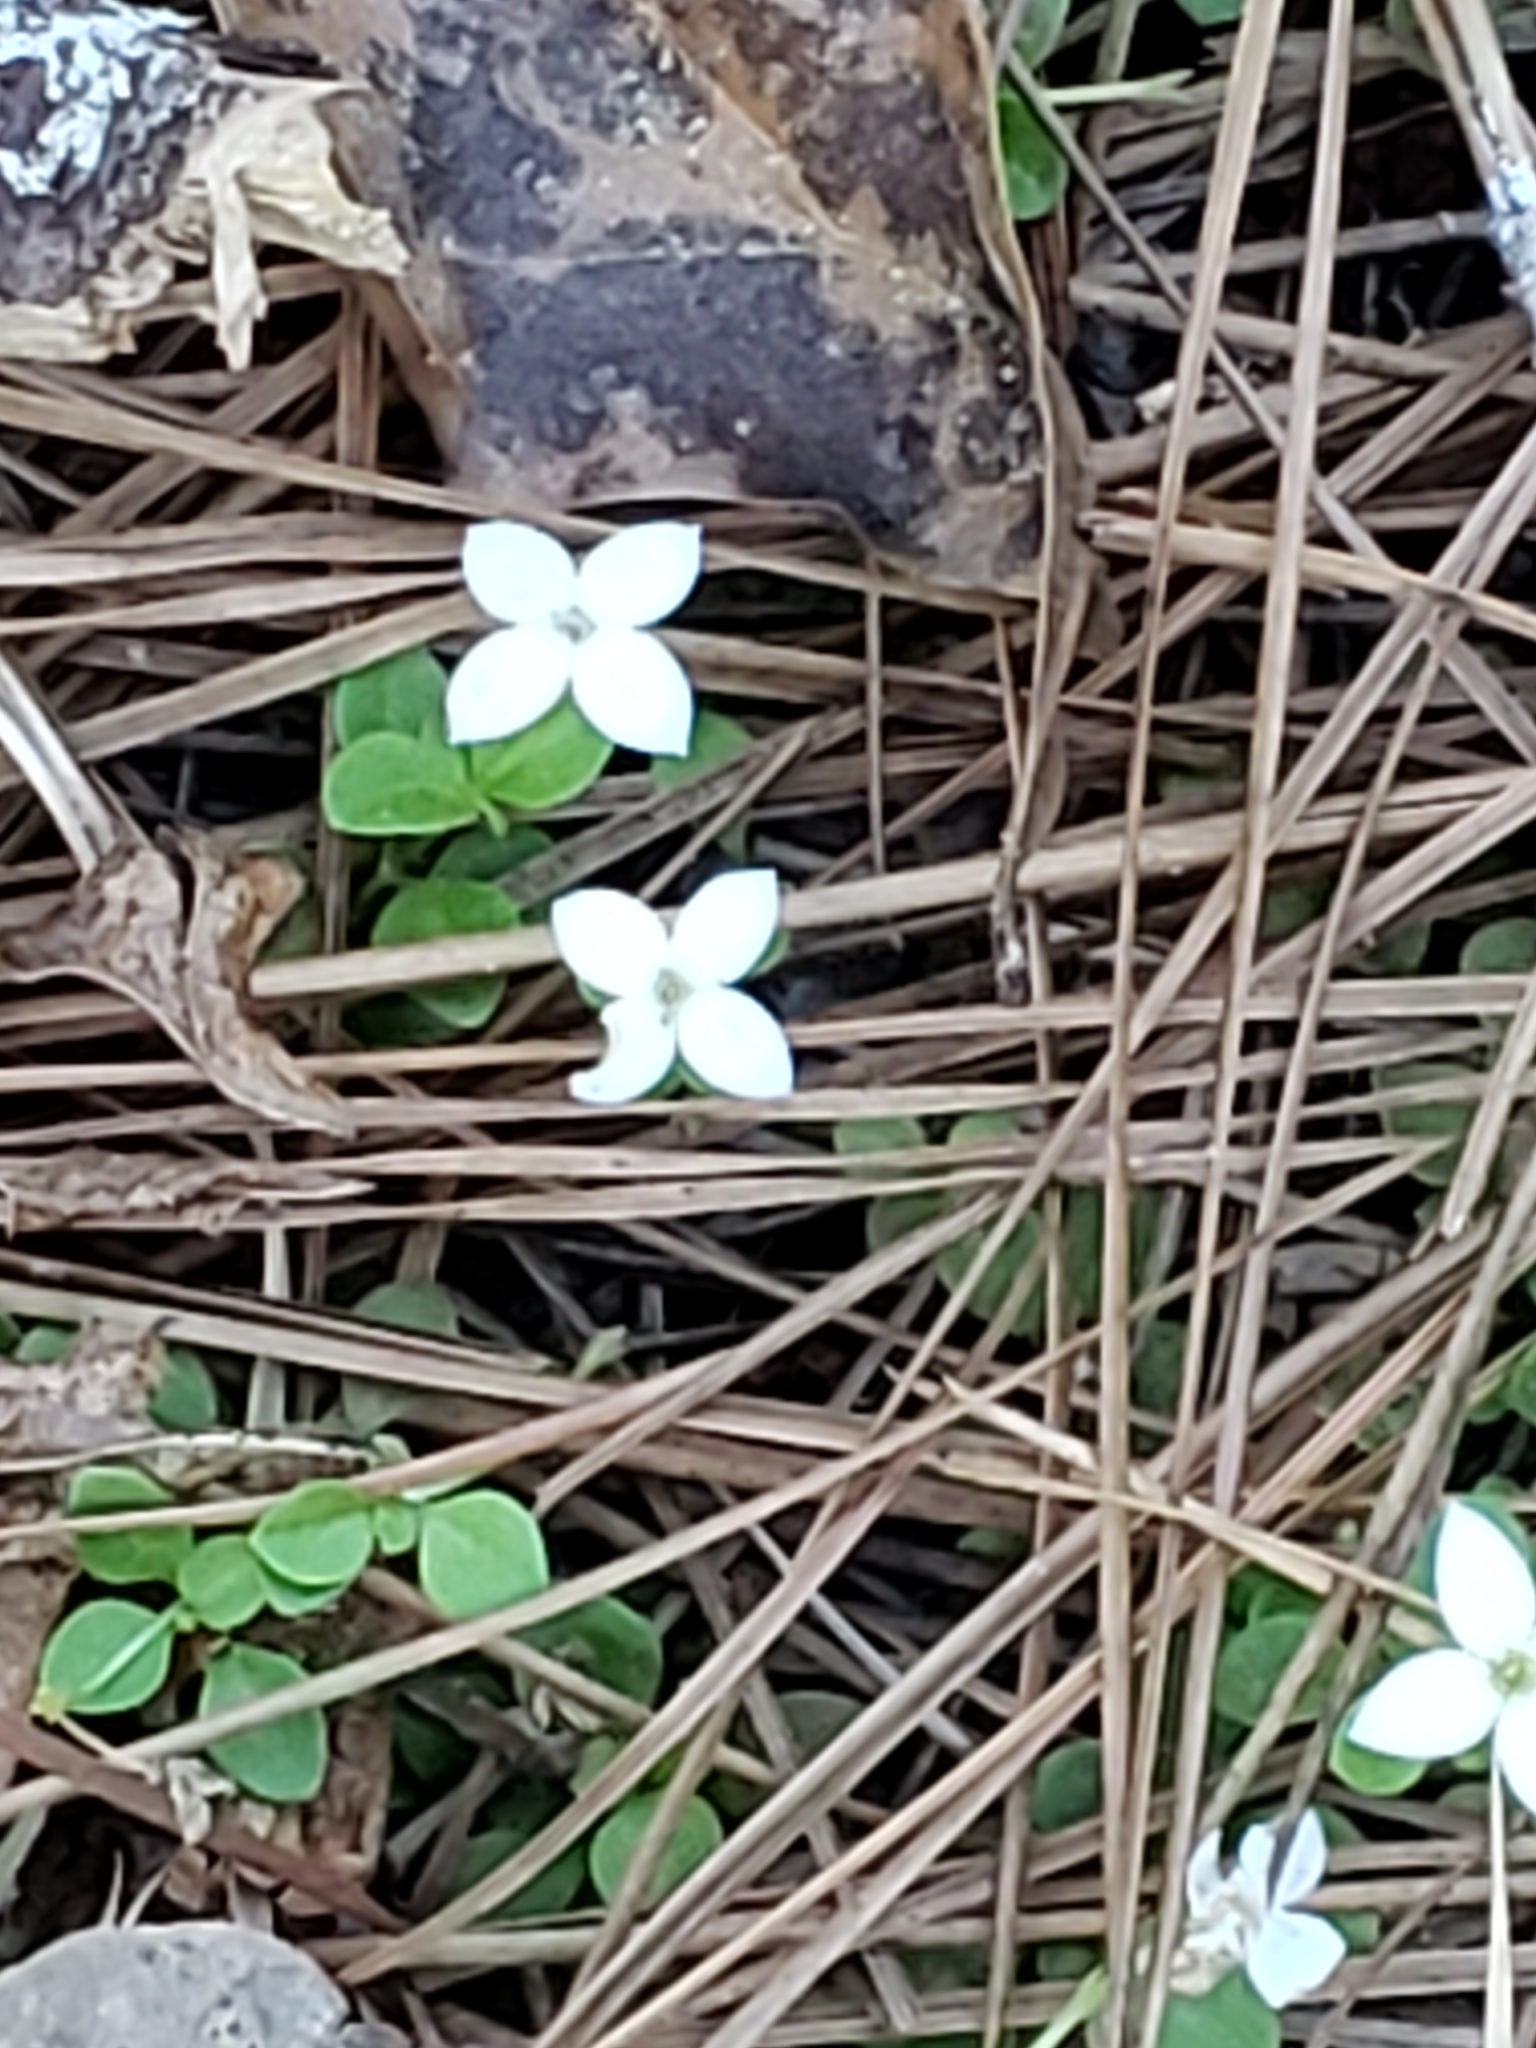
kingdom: Plantae
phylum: Tracheophyta
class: Magnoliopsida
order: Gentianales
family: Rubiaceae
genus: Houstonia
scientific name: Houstonia procumbens
